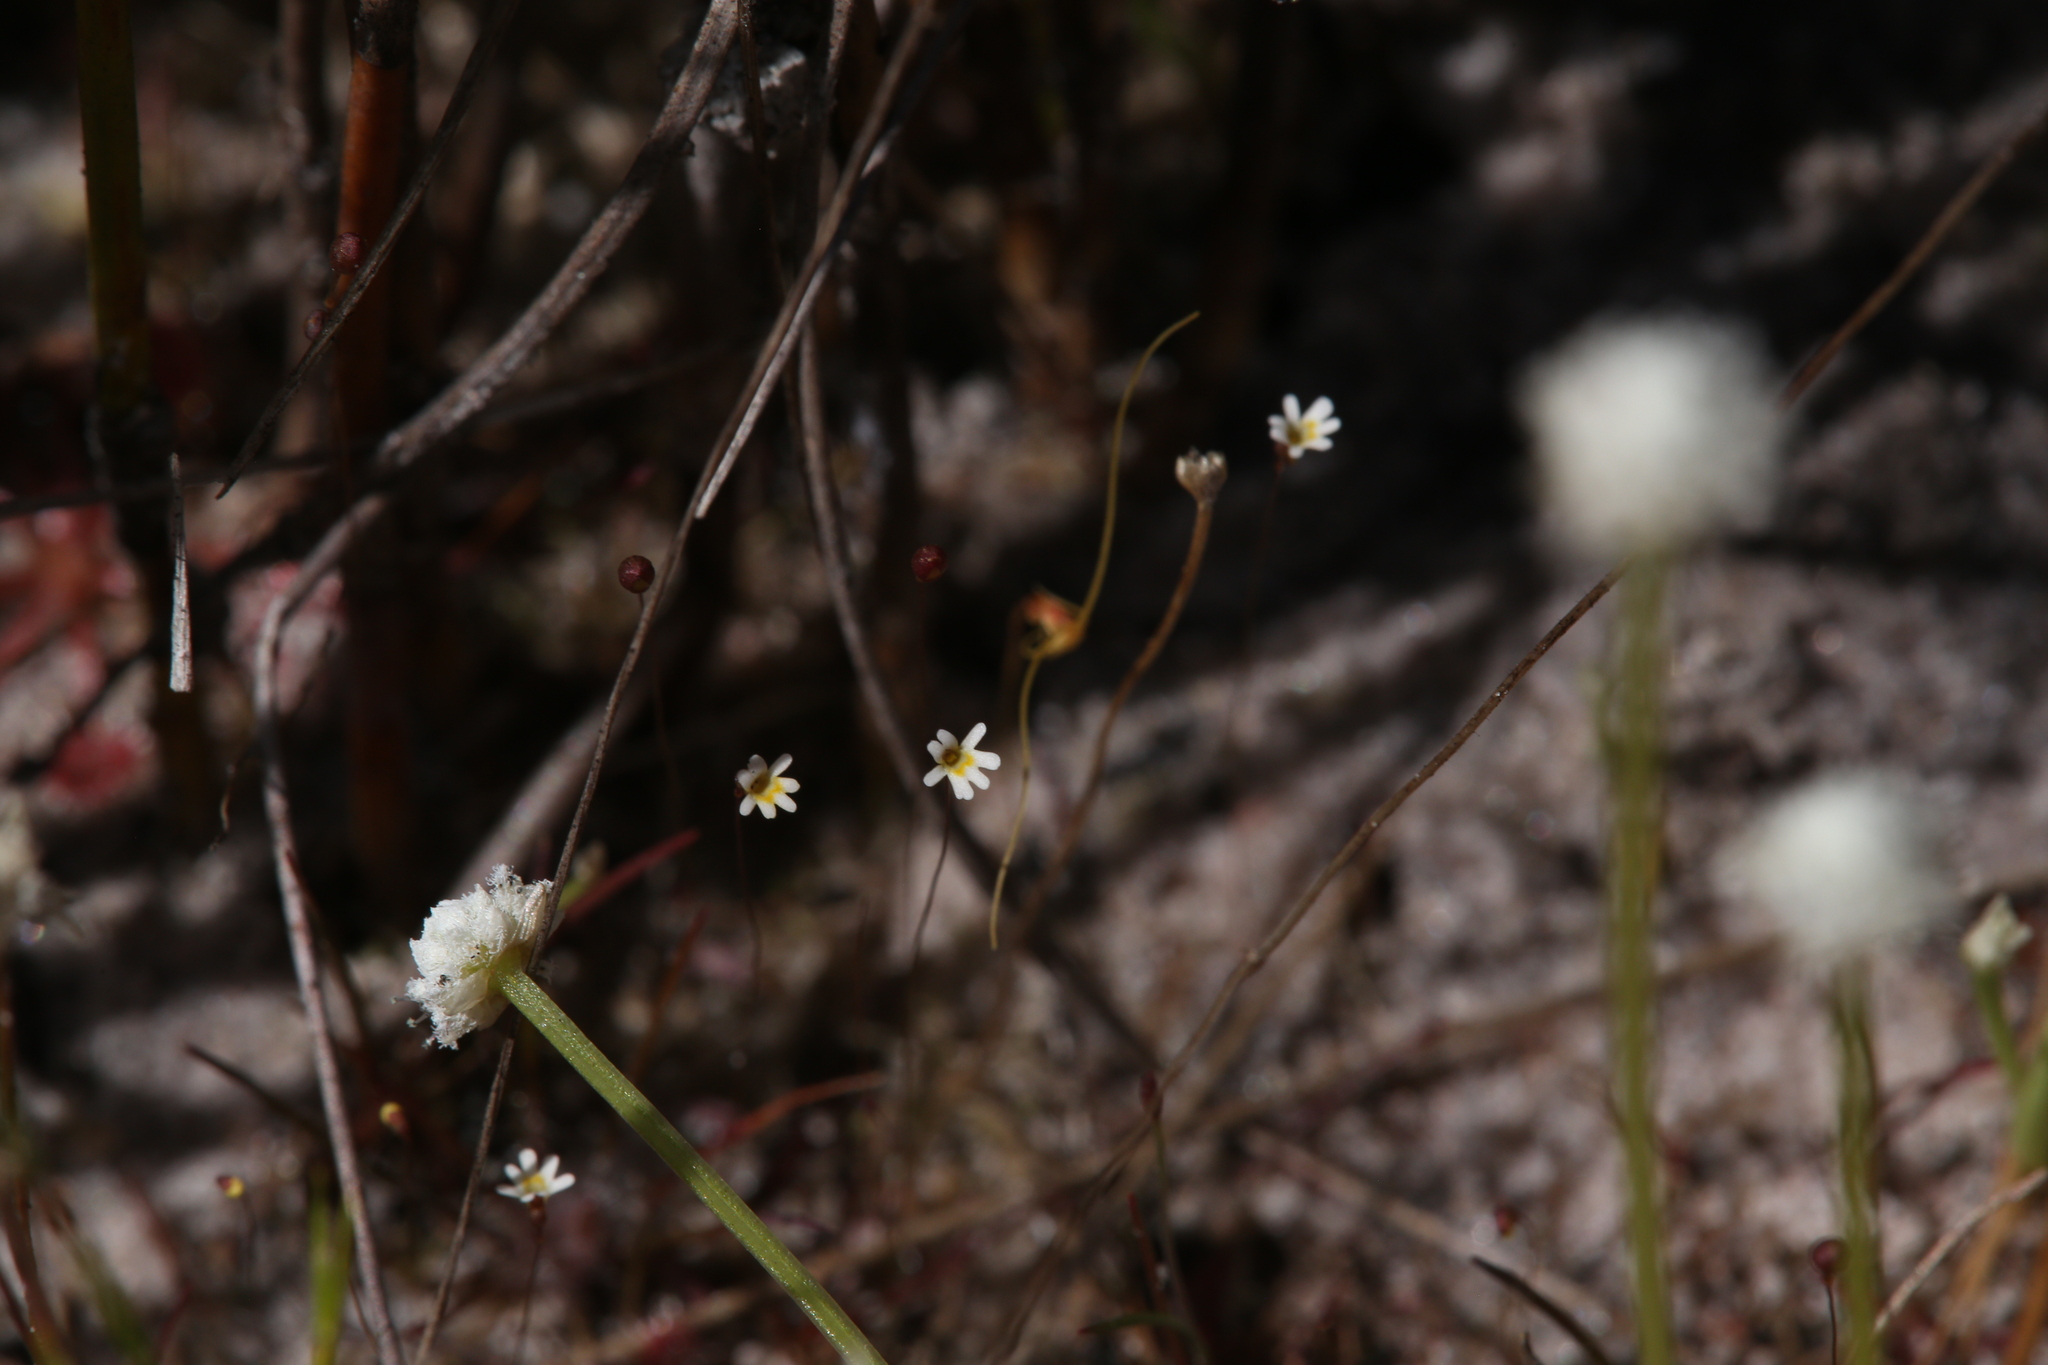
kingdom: Plantae
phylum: Tracheophyta
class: Magnoliopsida
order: Lamiales
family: Lentibulariaceae
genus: Utricularia
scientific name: Utricularia quinquedentata
